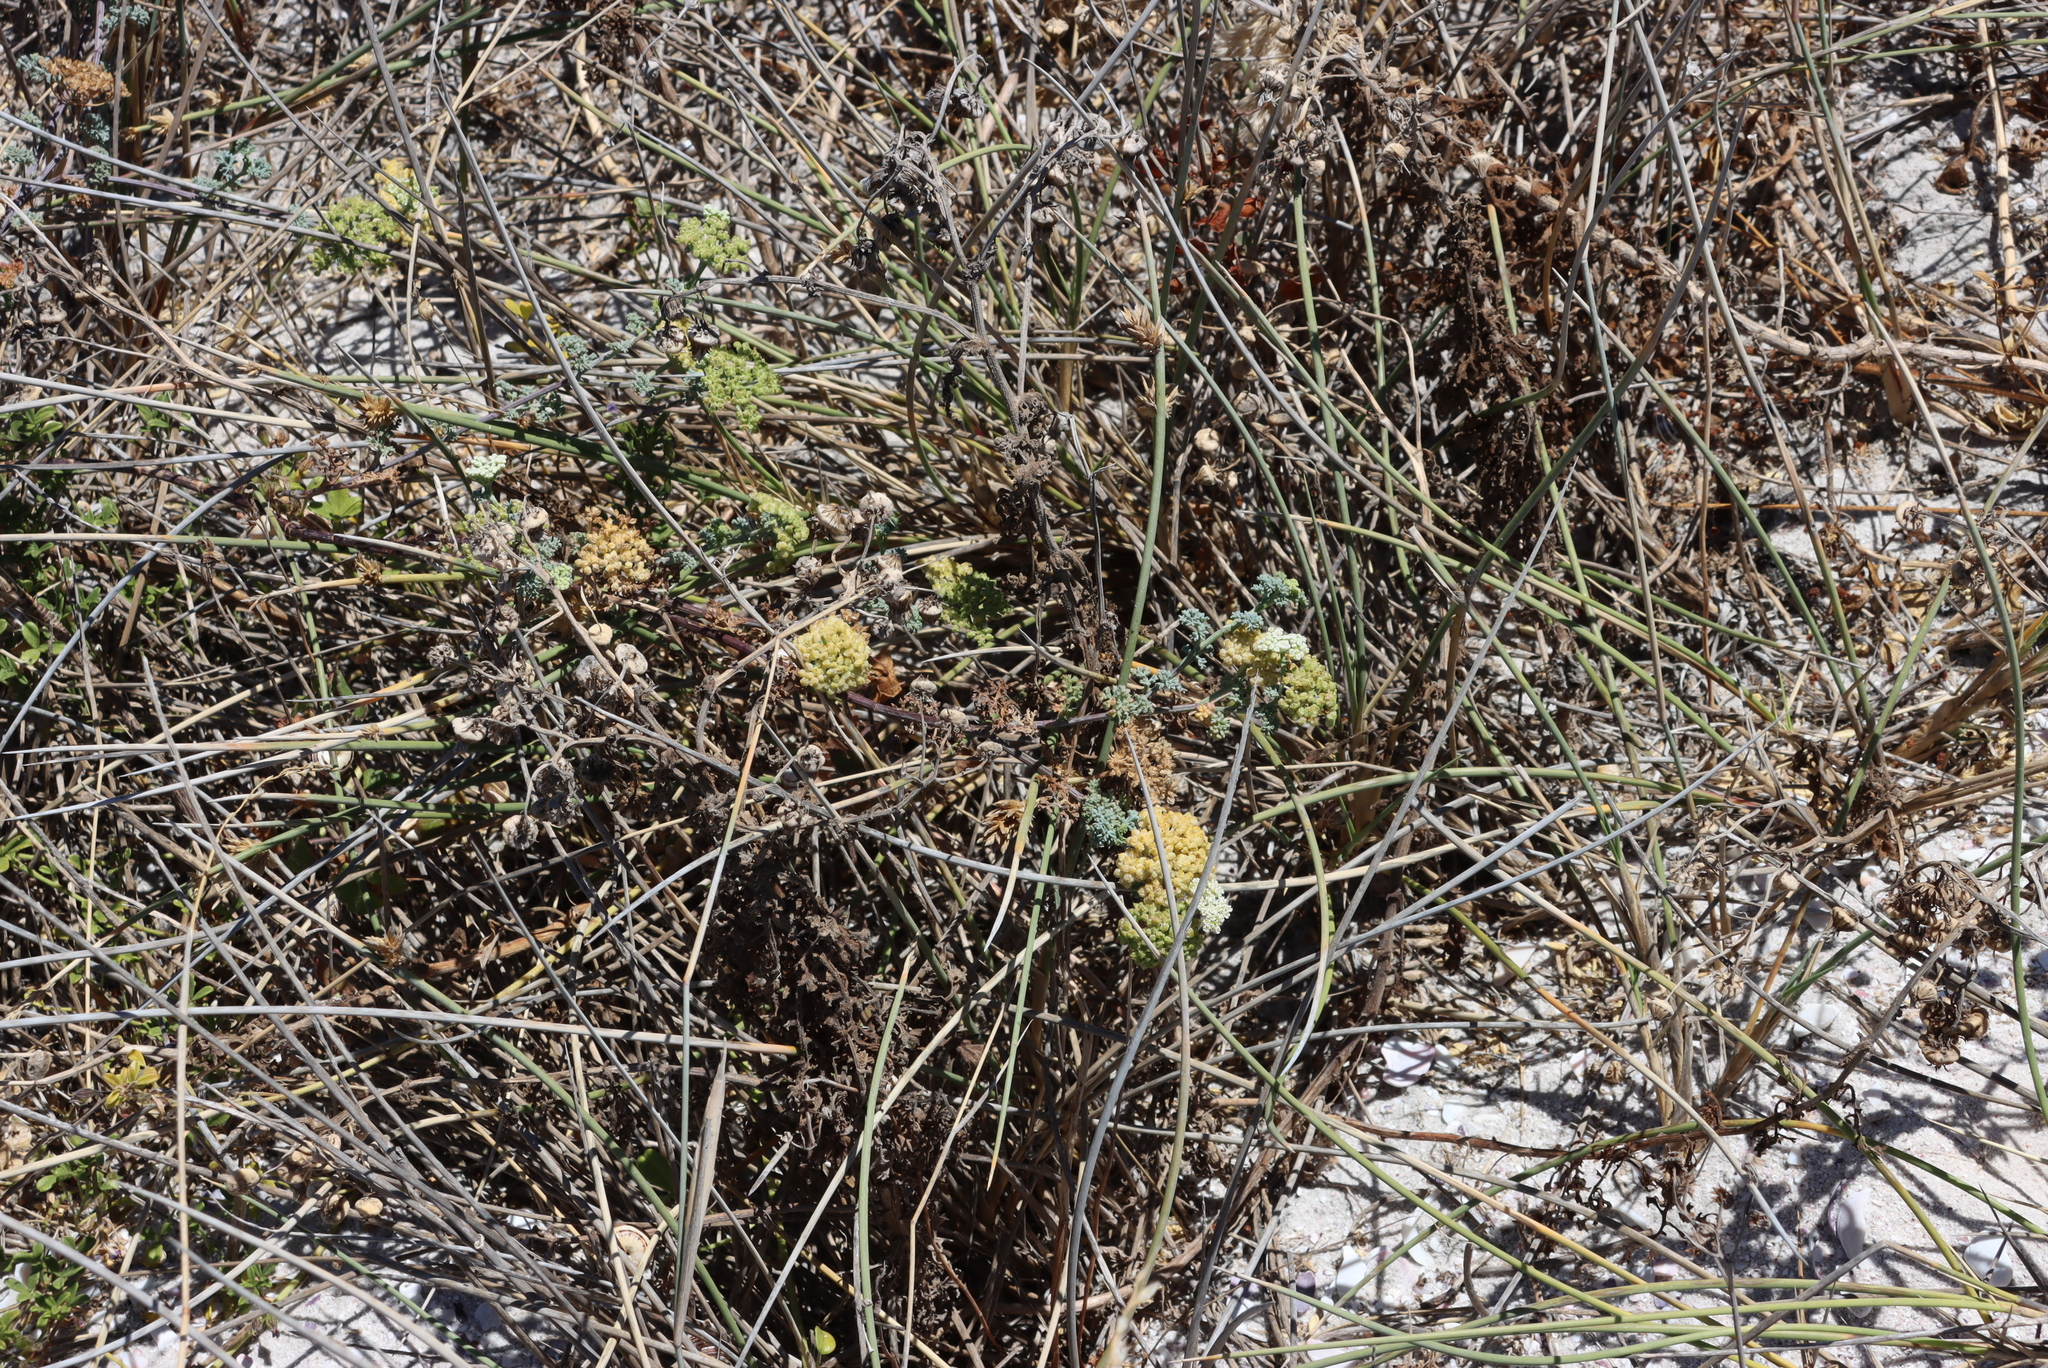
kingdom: Plantae
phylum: Tracheophyta
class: Magnoliopsida
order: Apiales
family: Apiaceae
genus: Dasispermum
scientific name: Dasispermum suffruticosum
